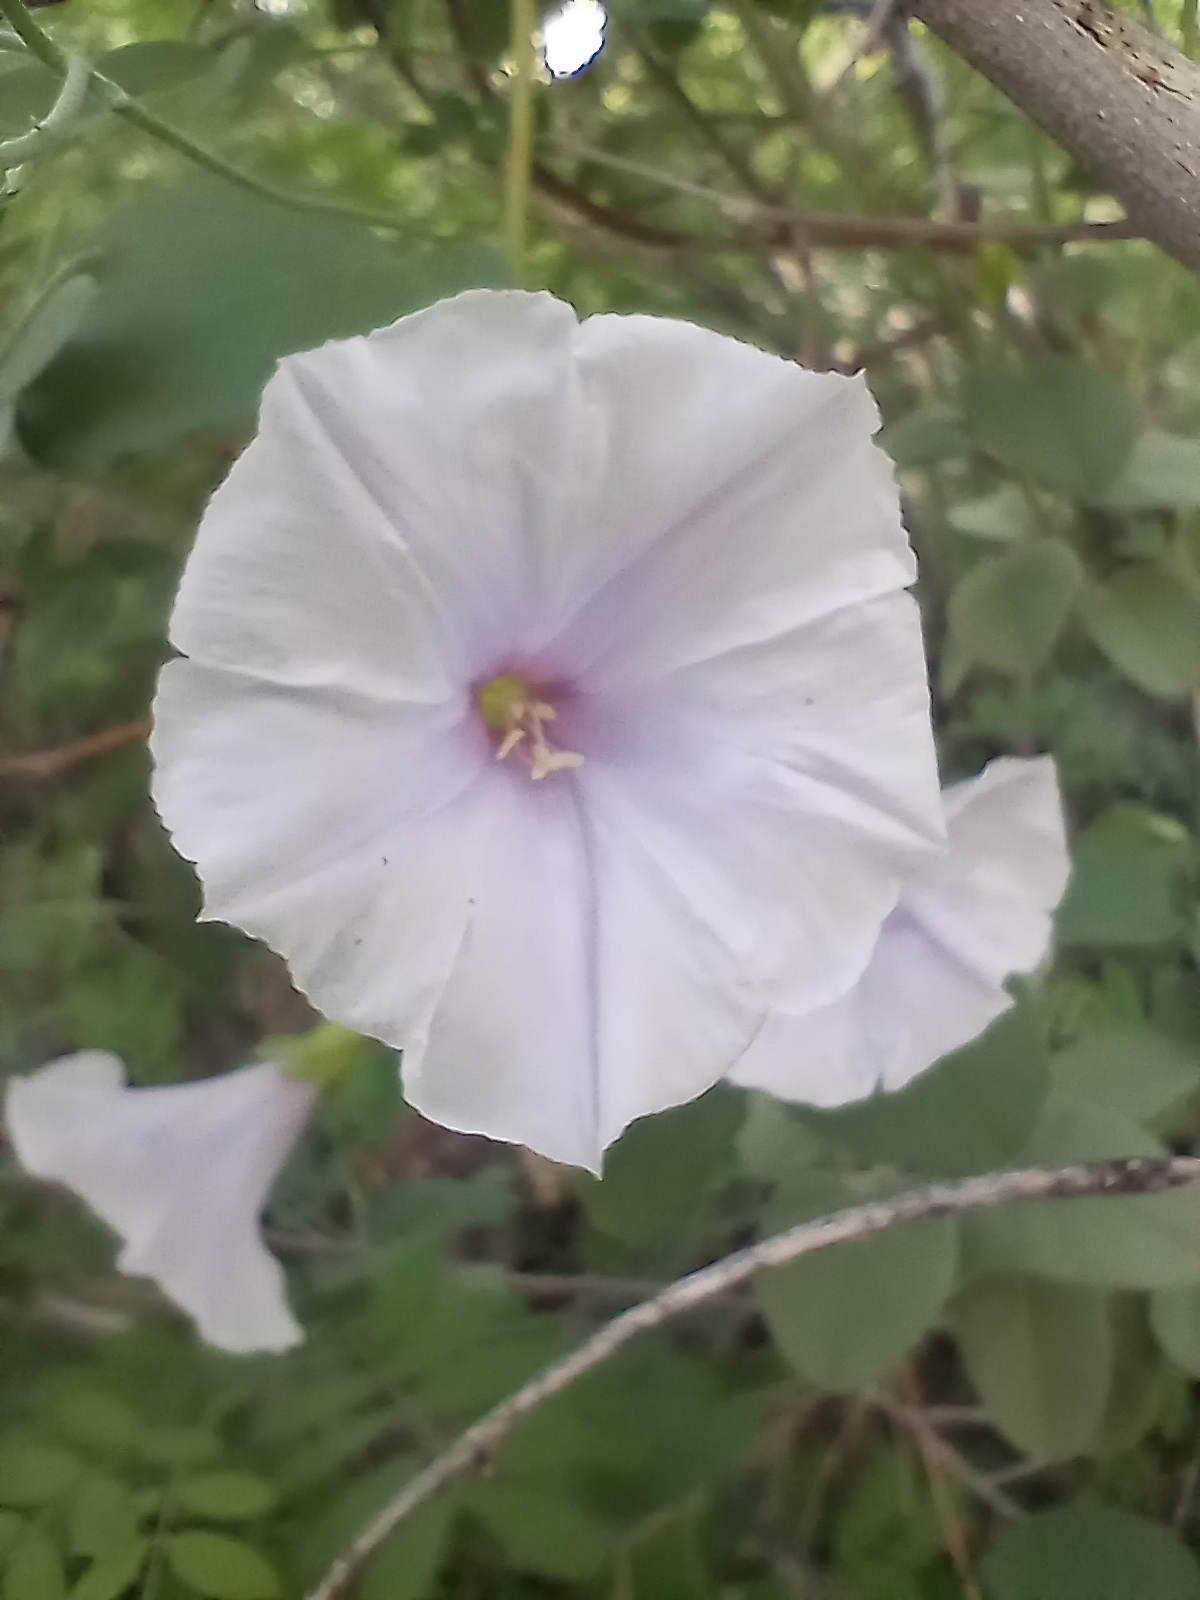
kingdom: Plantae
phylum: Tracheophyta
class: Magnoliopsida
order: Solanales
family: Convolvulaceae
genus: Jacquemontia
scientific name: Jacquemontia pringlei
